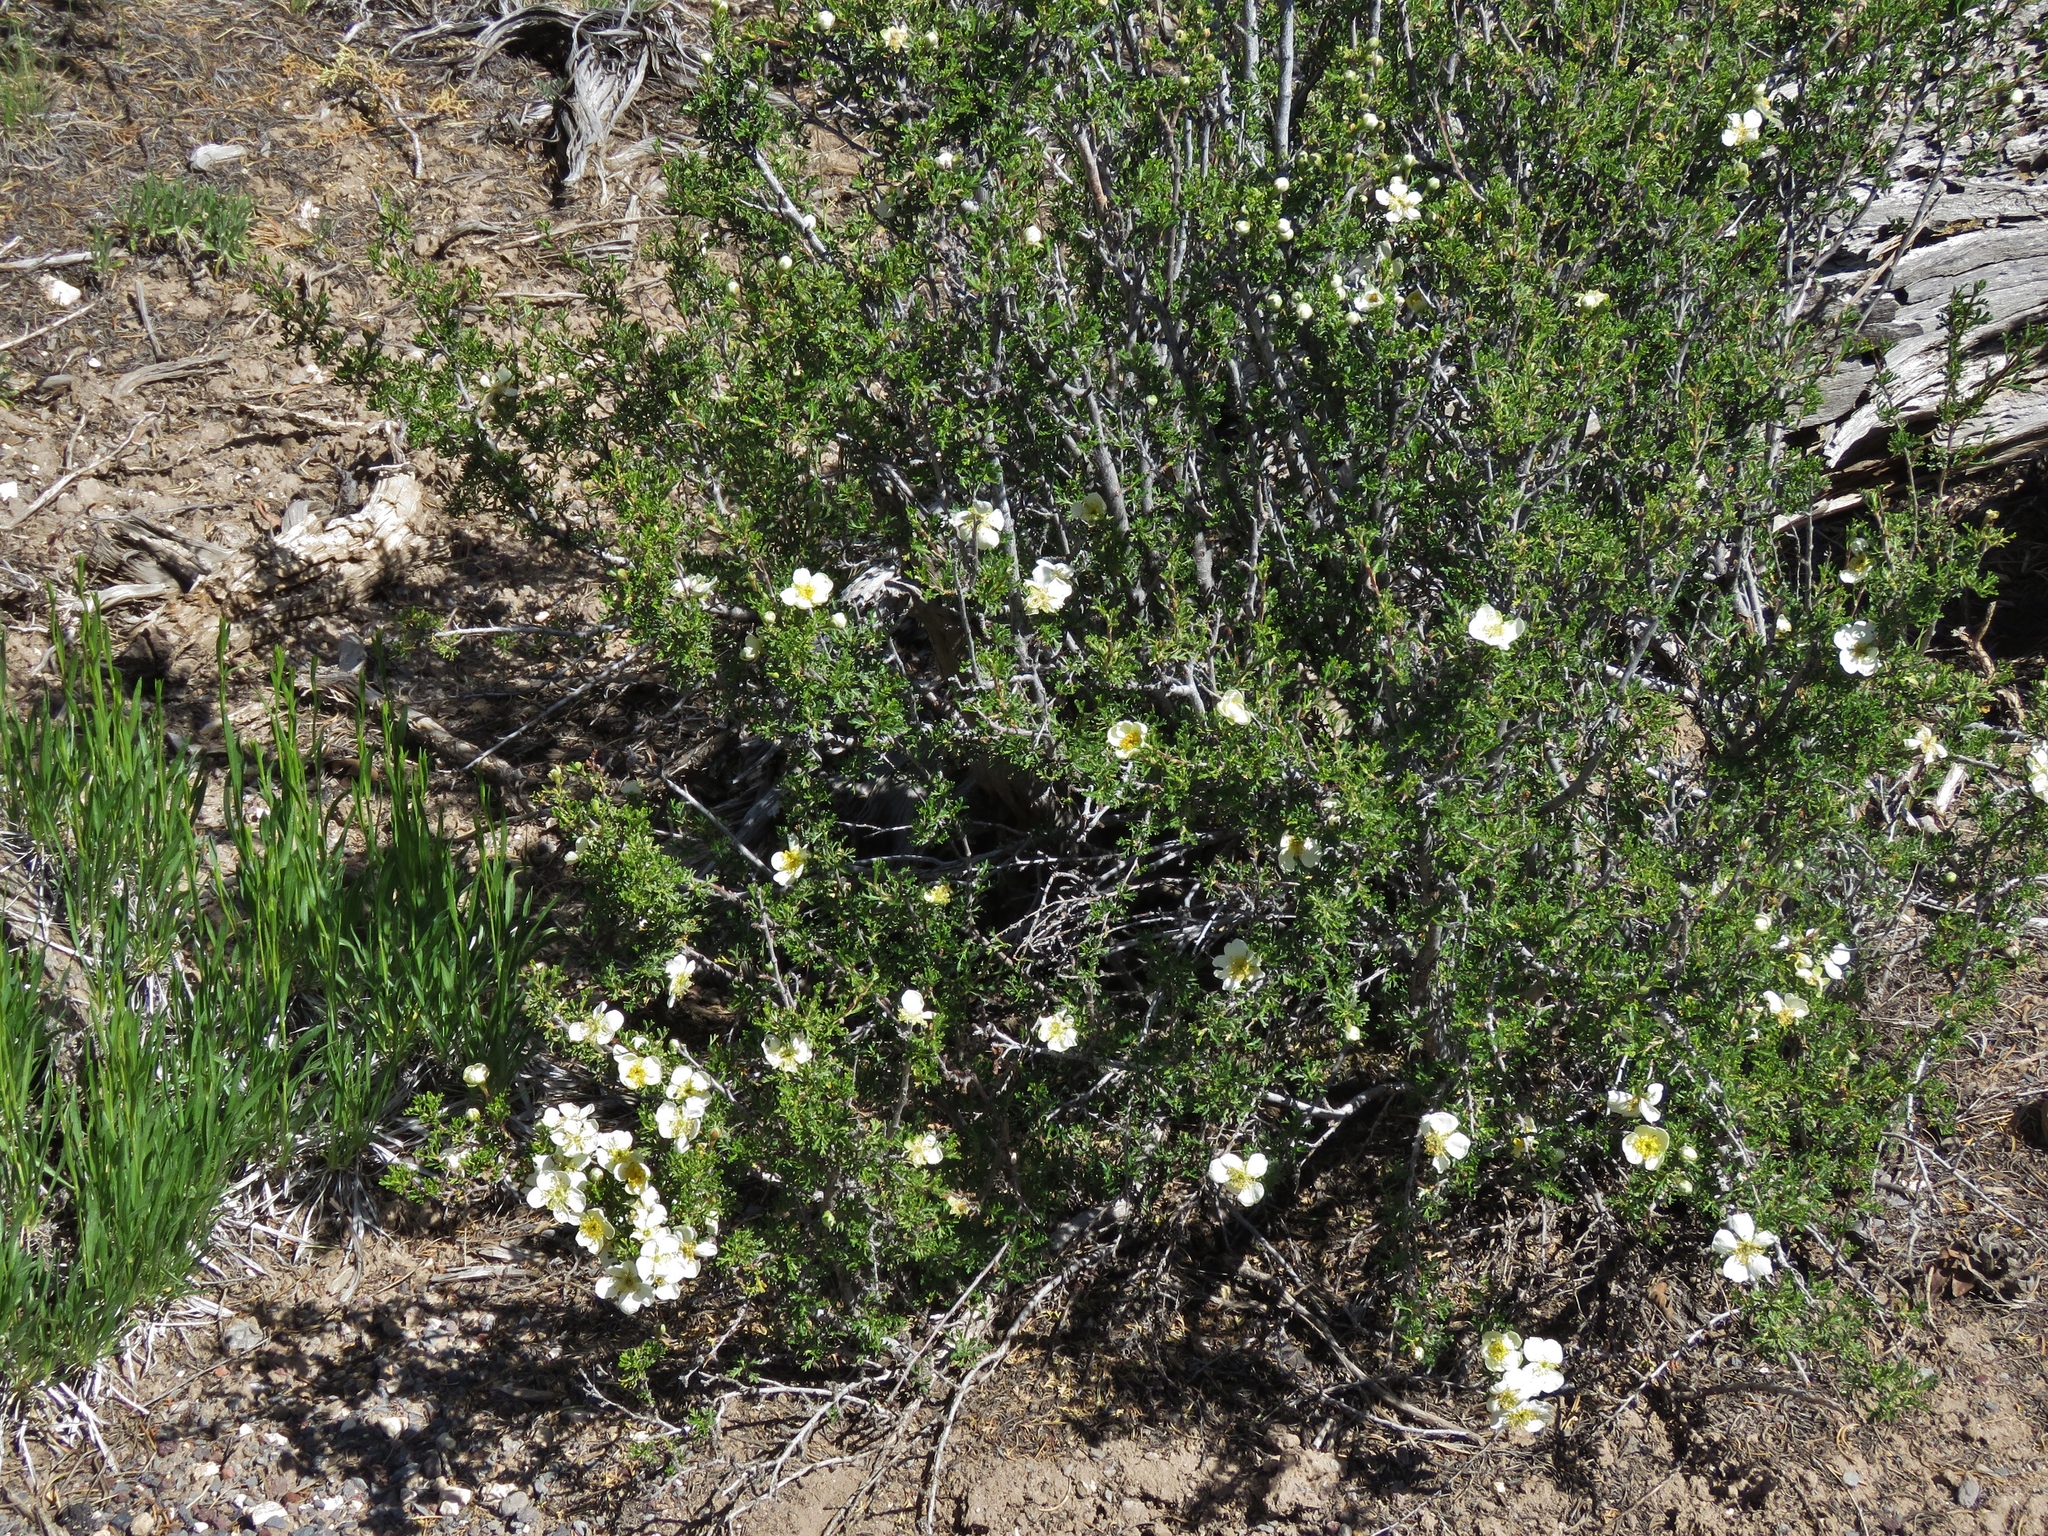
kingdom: Plantae
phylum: Tracheophyta
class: Magnoliopsida
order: Rosales
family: Rosaceae
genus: Purshia
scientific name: Purshia stansburiana
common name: Stansbury's cliffrose
